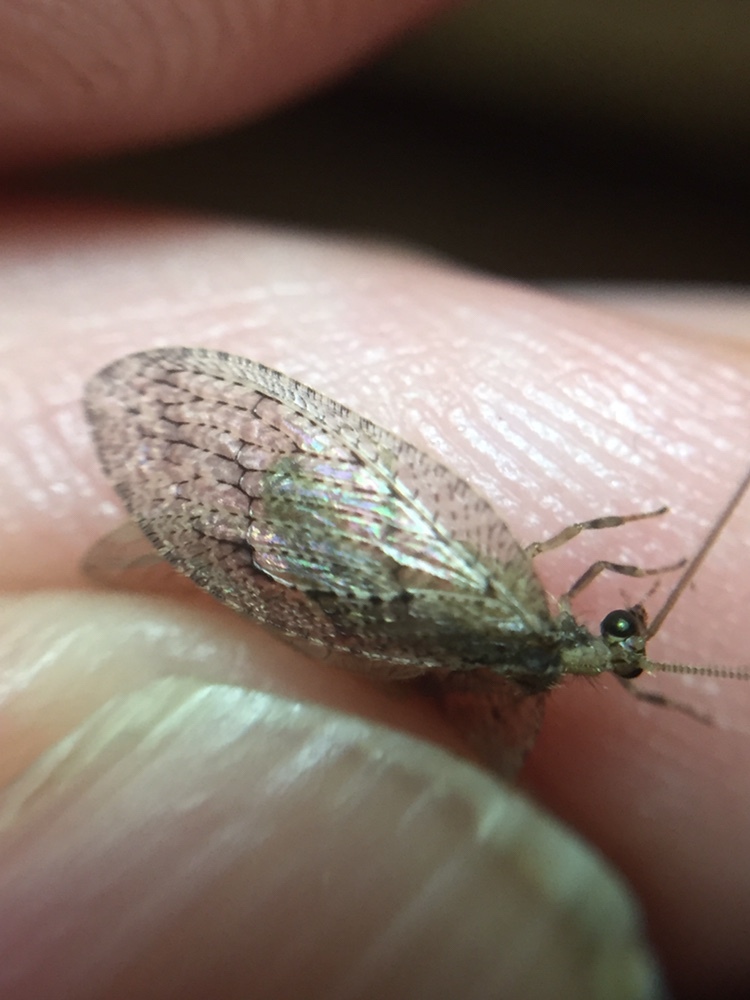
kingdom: Animalia
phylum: Arthropoda
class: Insecta
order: Neuroptera
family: Hemerobiidae
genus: Wesmaelius
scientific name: Wesmaelius subnebulosus
